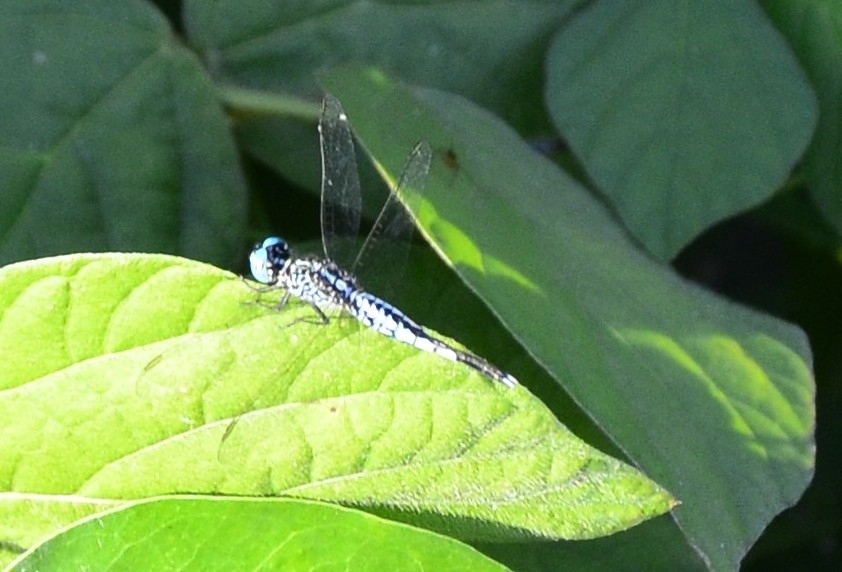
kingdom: Animalia
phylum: Arthropoda
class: Insecta
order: Odonata
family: Libellulidae
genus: Acisoma
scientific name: Acisoma panorpoides
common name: Asian pintail
